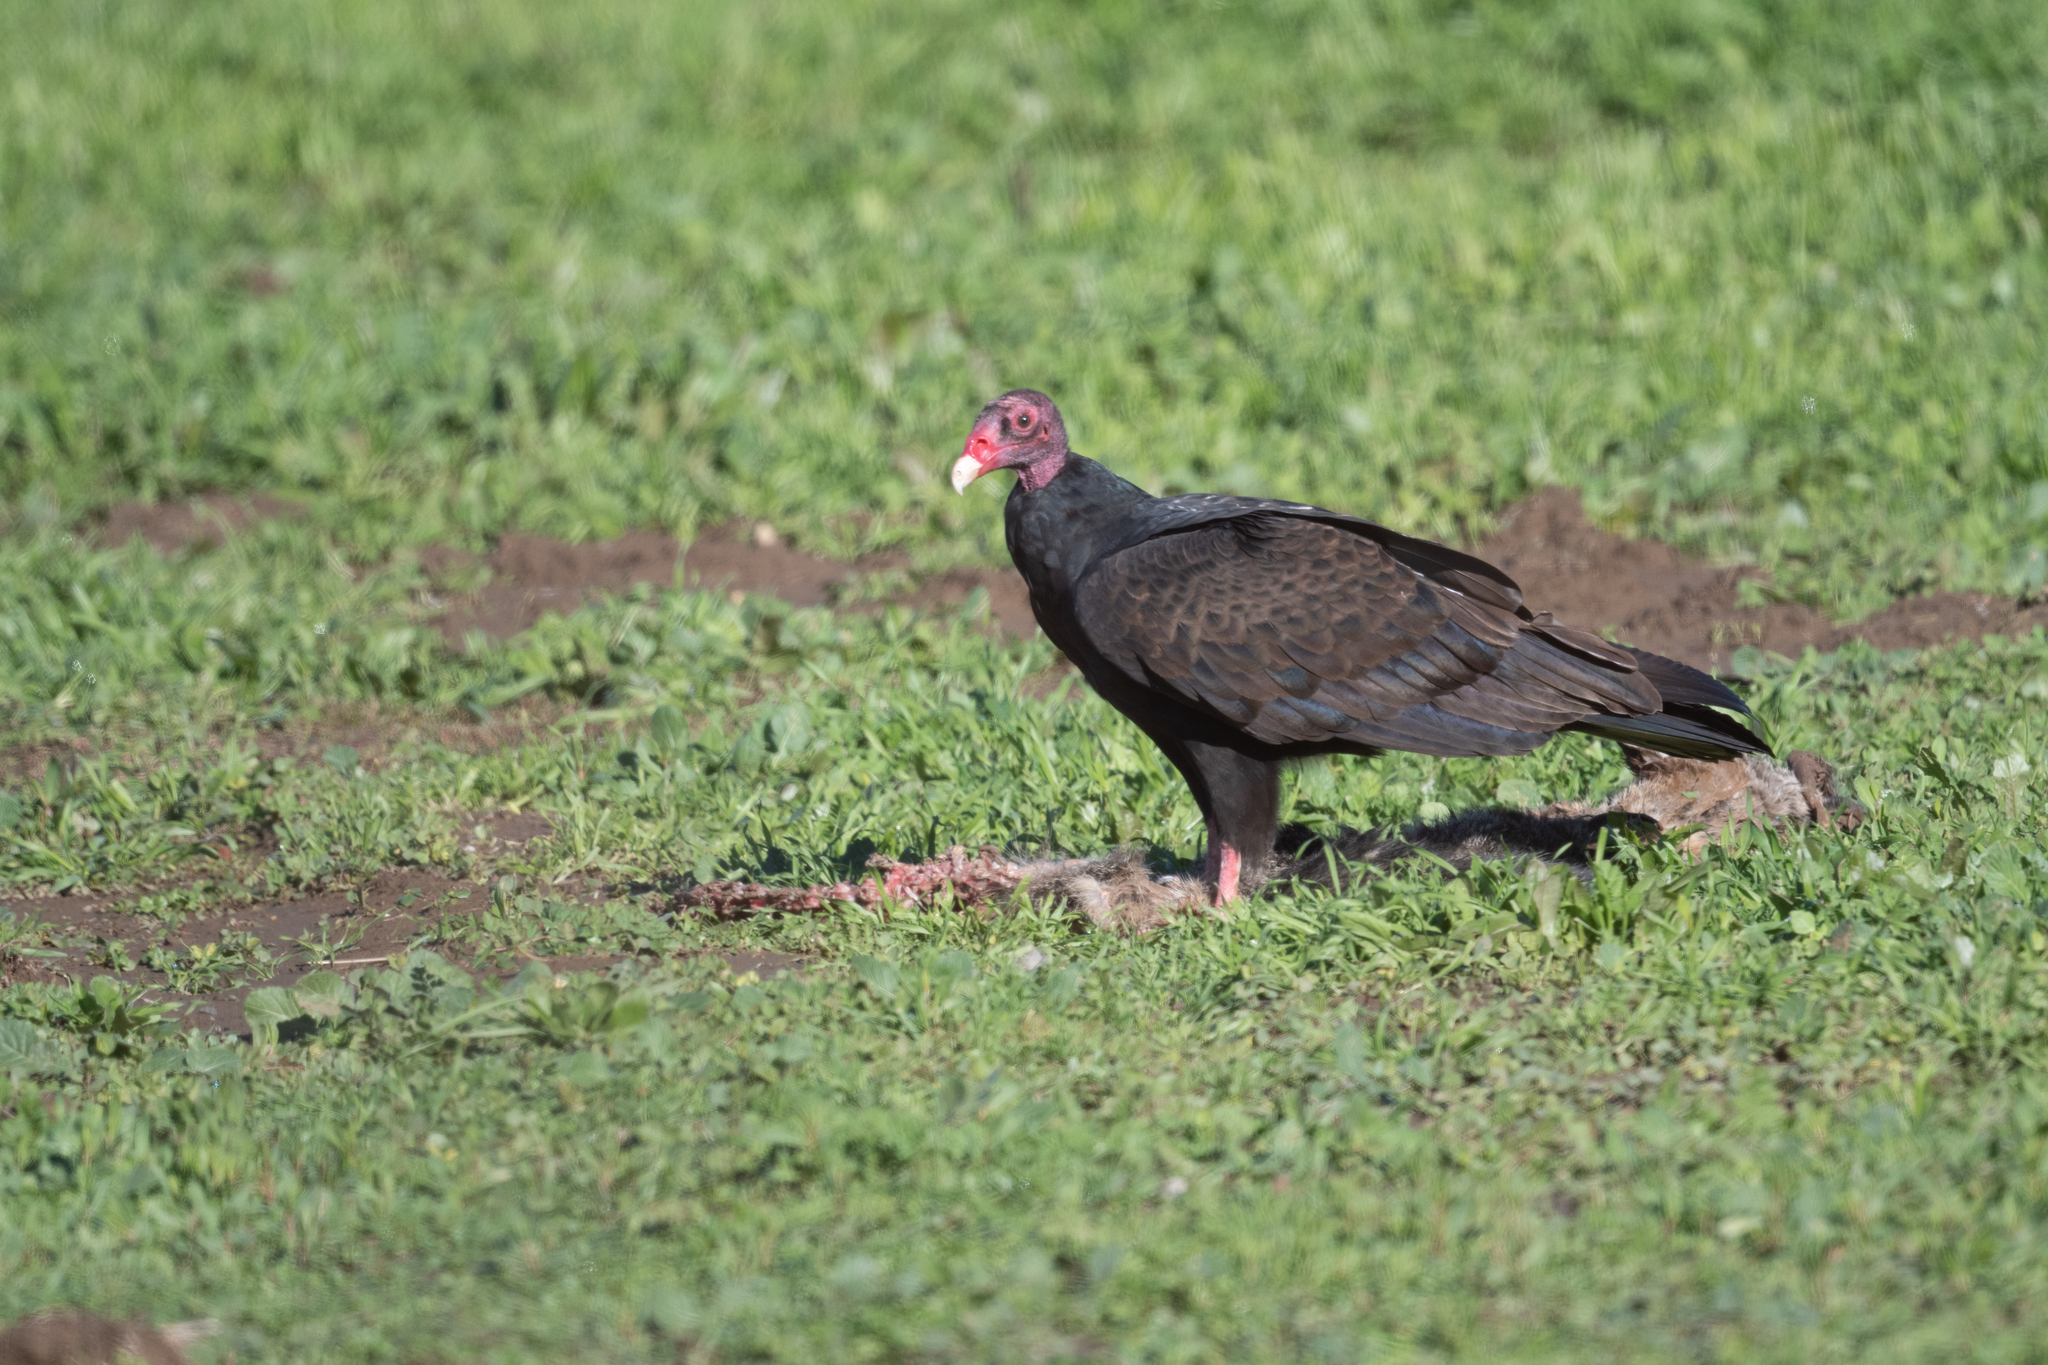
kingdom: Animalia
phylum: Chordata
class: Aves
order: Accipitriformes
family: Cathartidae
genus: Cathartes
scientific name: Cathartes aura
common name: Turkey vulture
